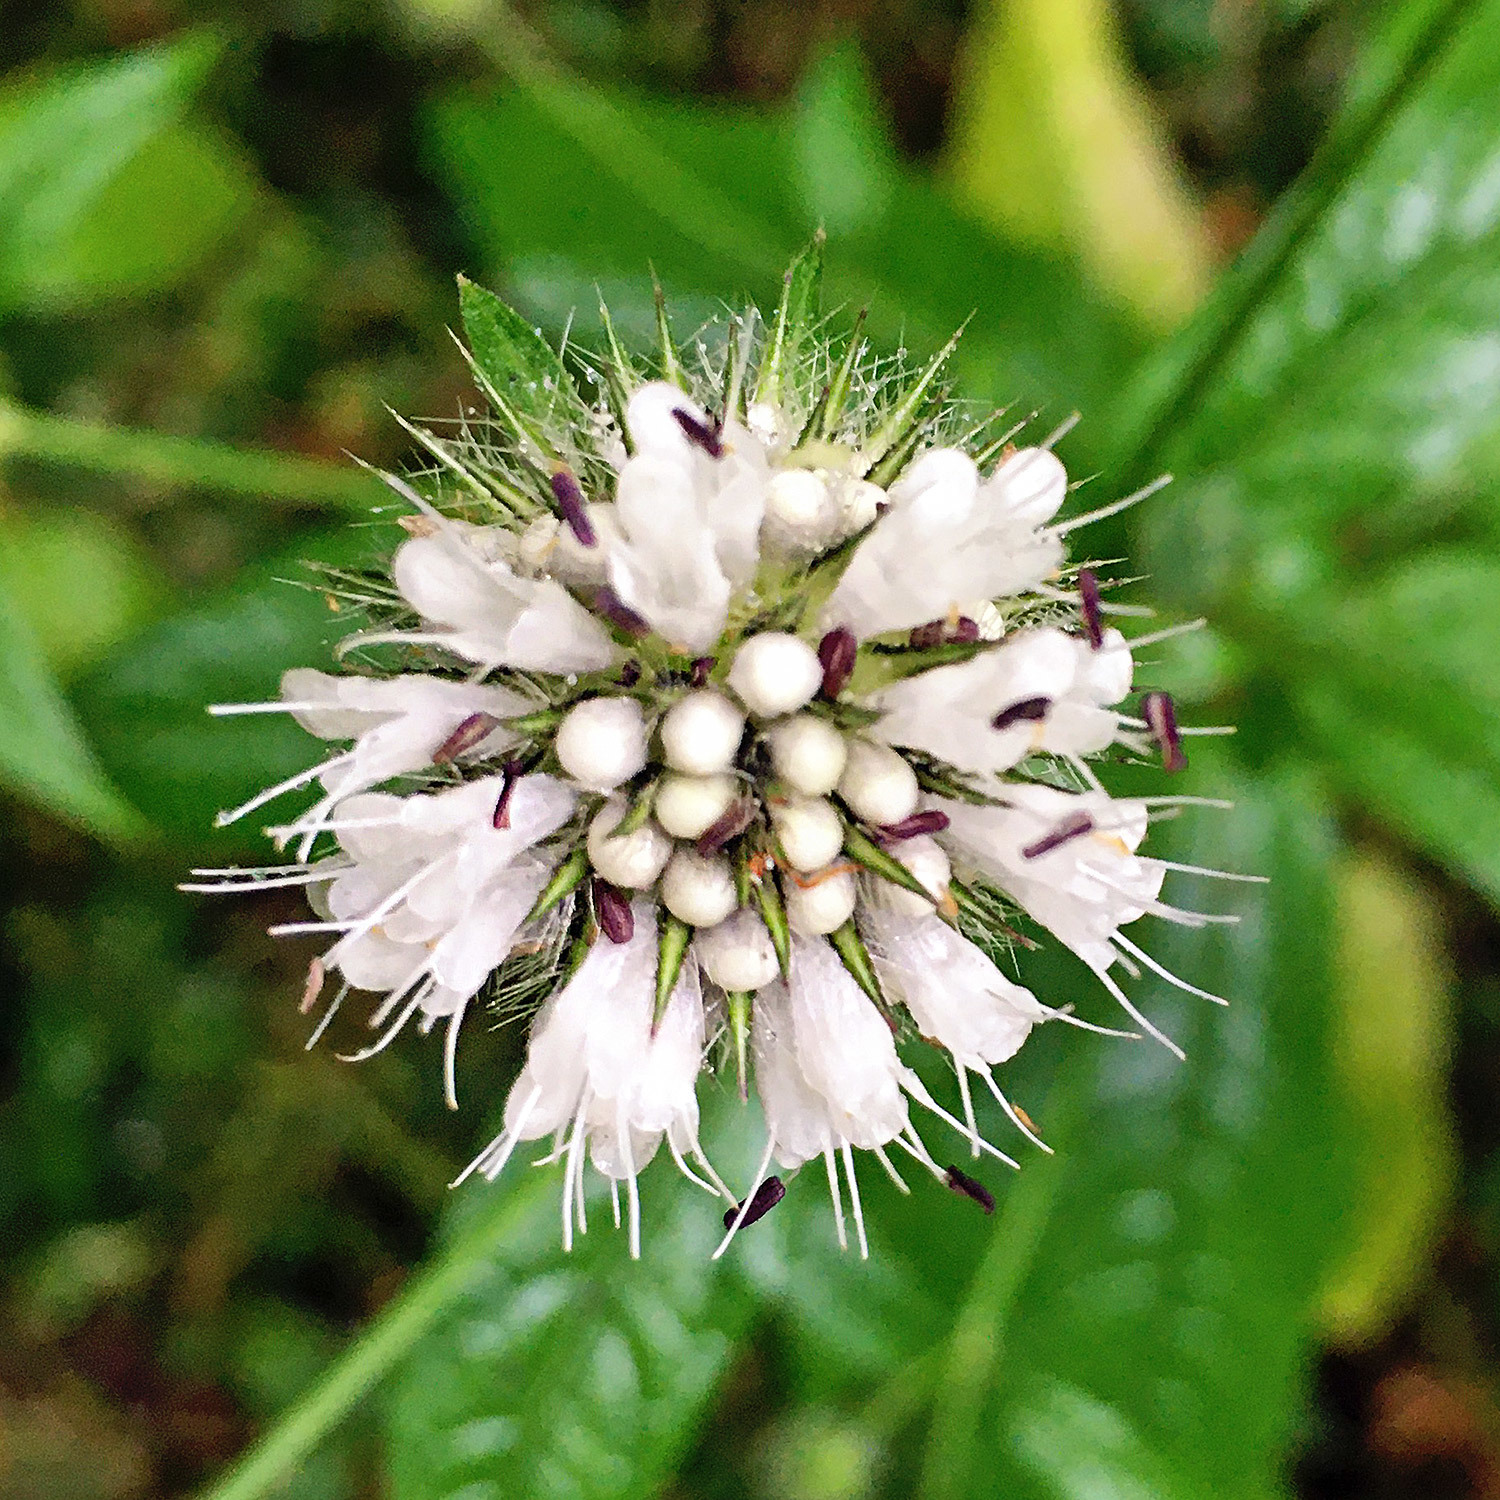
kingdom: Plantae
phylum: Tracheophyta
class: Magnoliopsida
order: Dipsacales
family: Caprifoliaceae
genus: Dipsacus
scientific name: Dipsacus pilosus
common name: Small teasel
